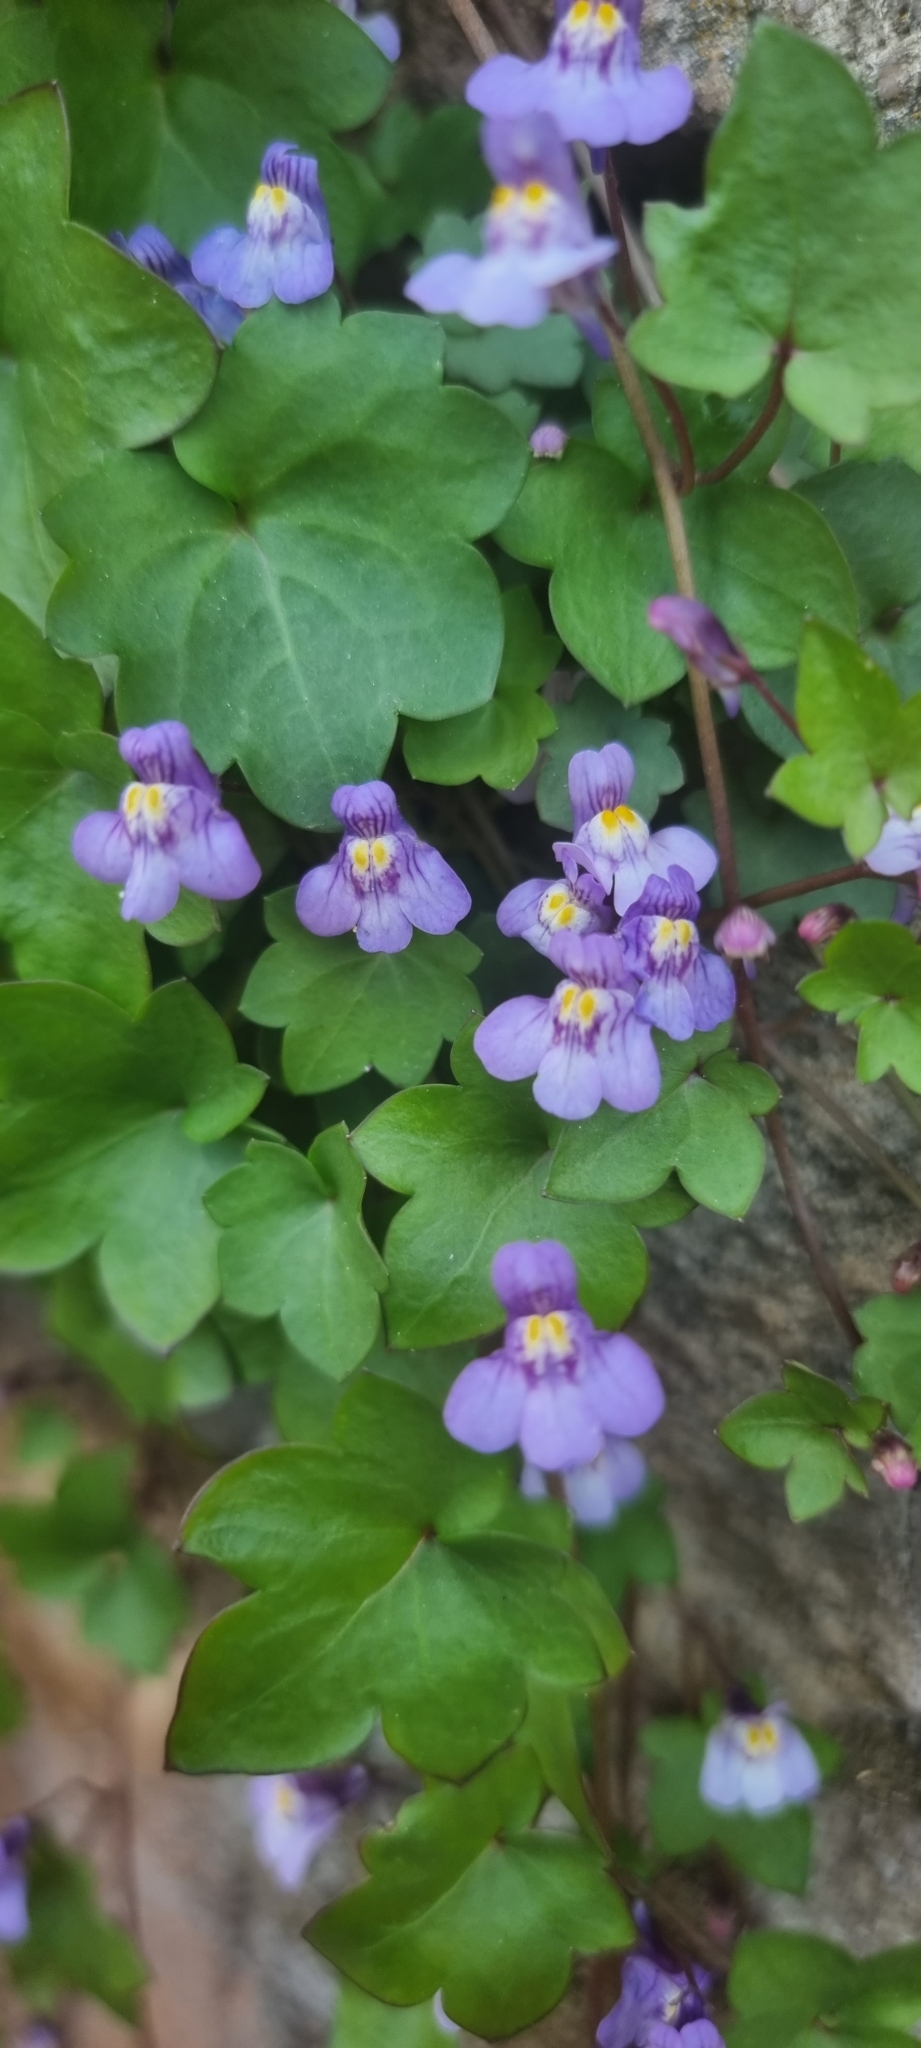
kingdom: Plantae
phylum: Tracheophyta
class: Magnoliopsida
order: Lamiales
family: Plantaginaceae
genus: Cymbalaria
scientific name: Cymbalaria muralis
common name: Ivy-leaved toadflax
